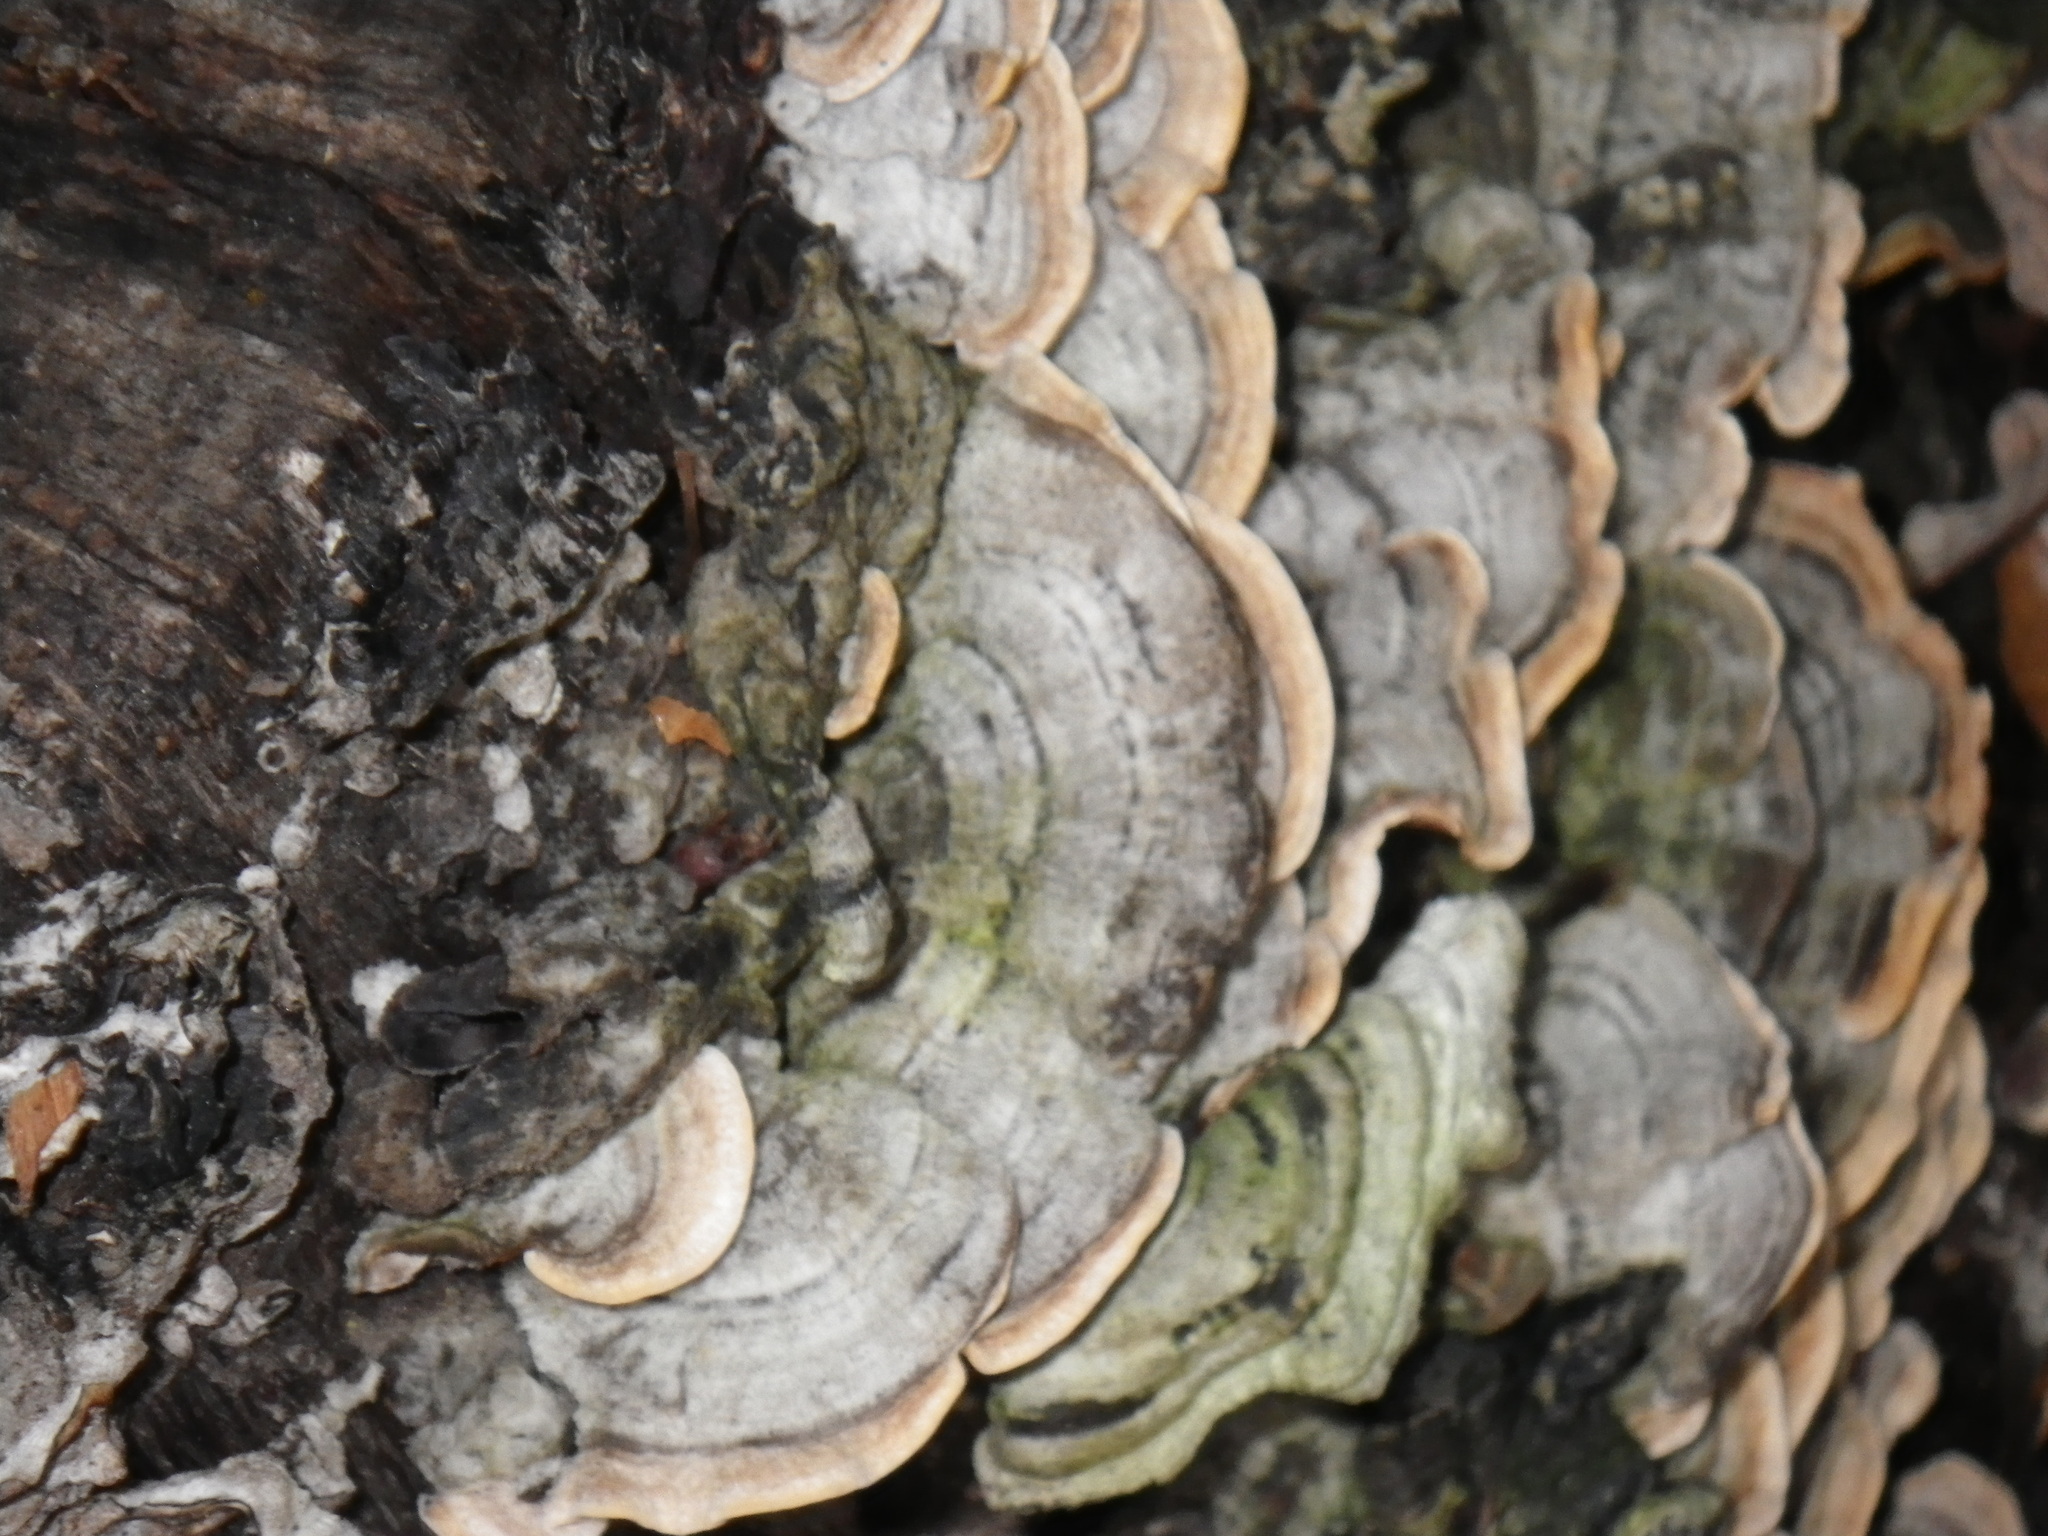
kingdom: Fungi
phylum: Basidiomycota
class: Agaricomycetes
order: Russulales
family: Stereaceae
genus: Stereum
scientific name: Stereum hirsutum
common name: Hairy curtain crust
